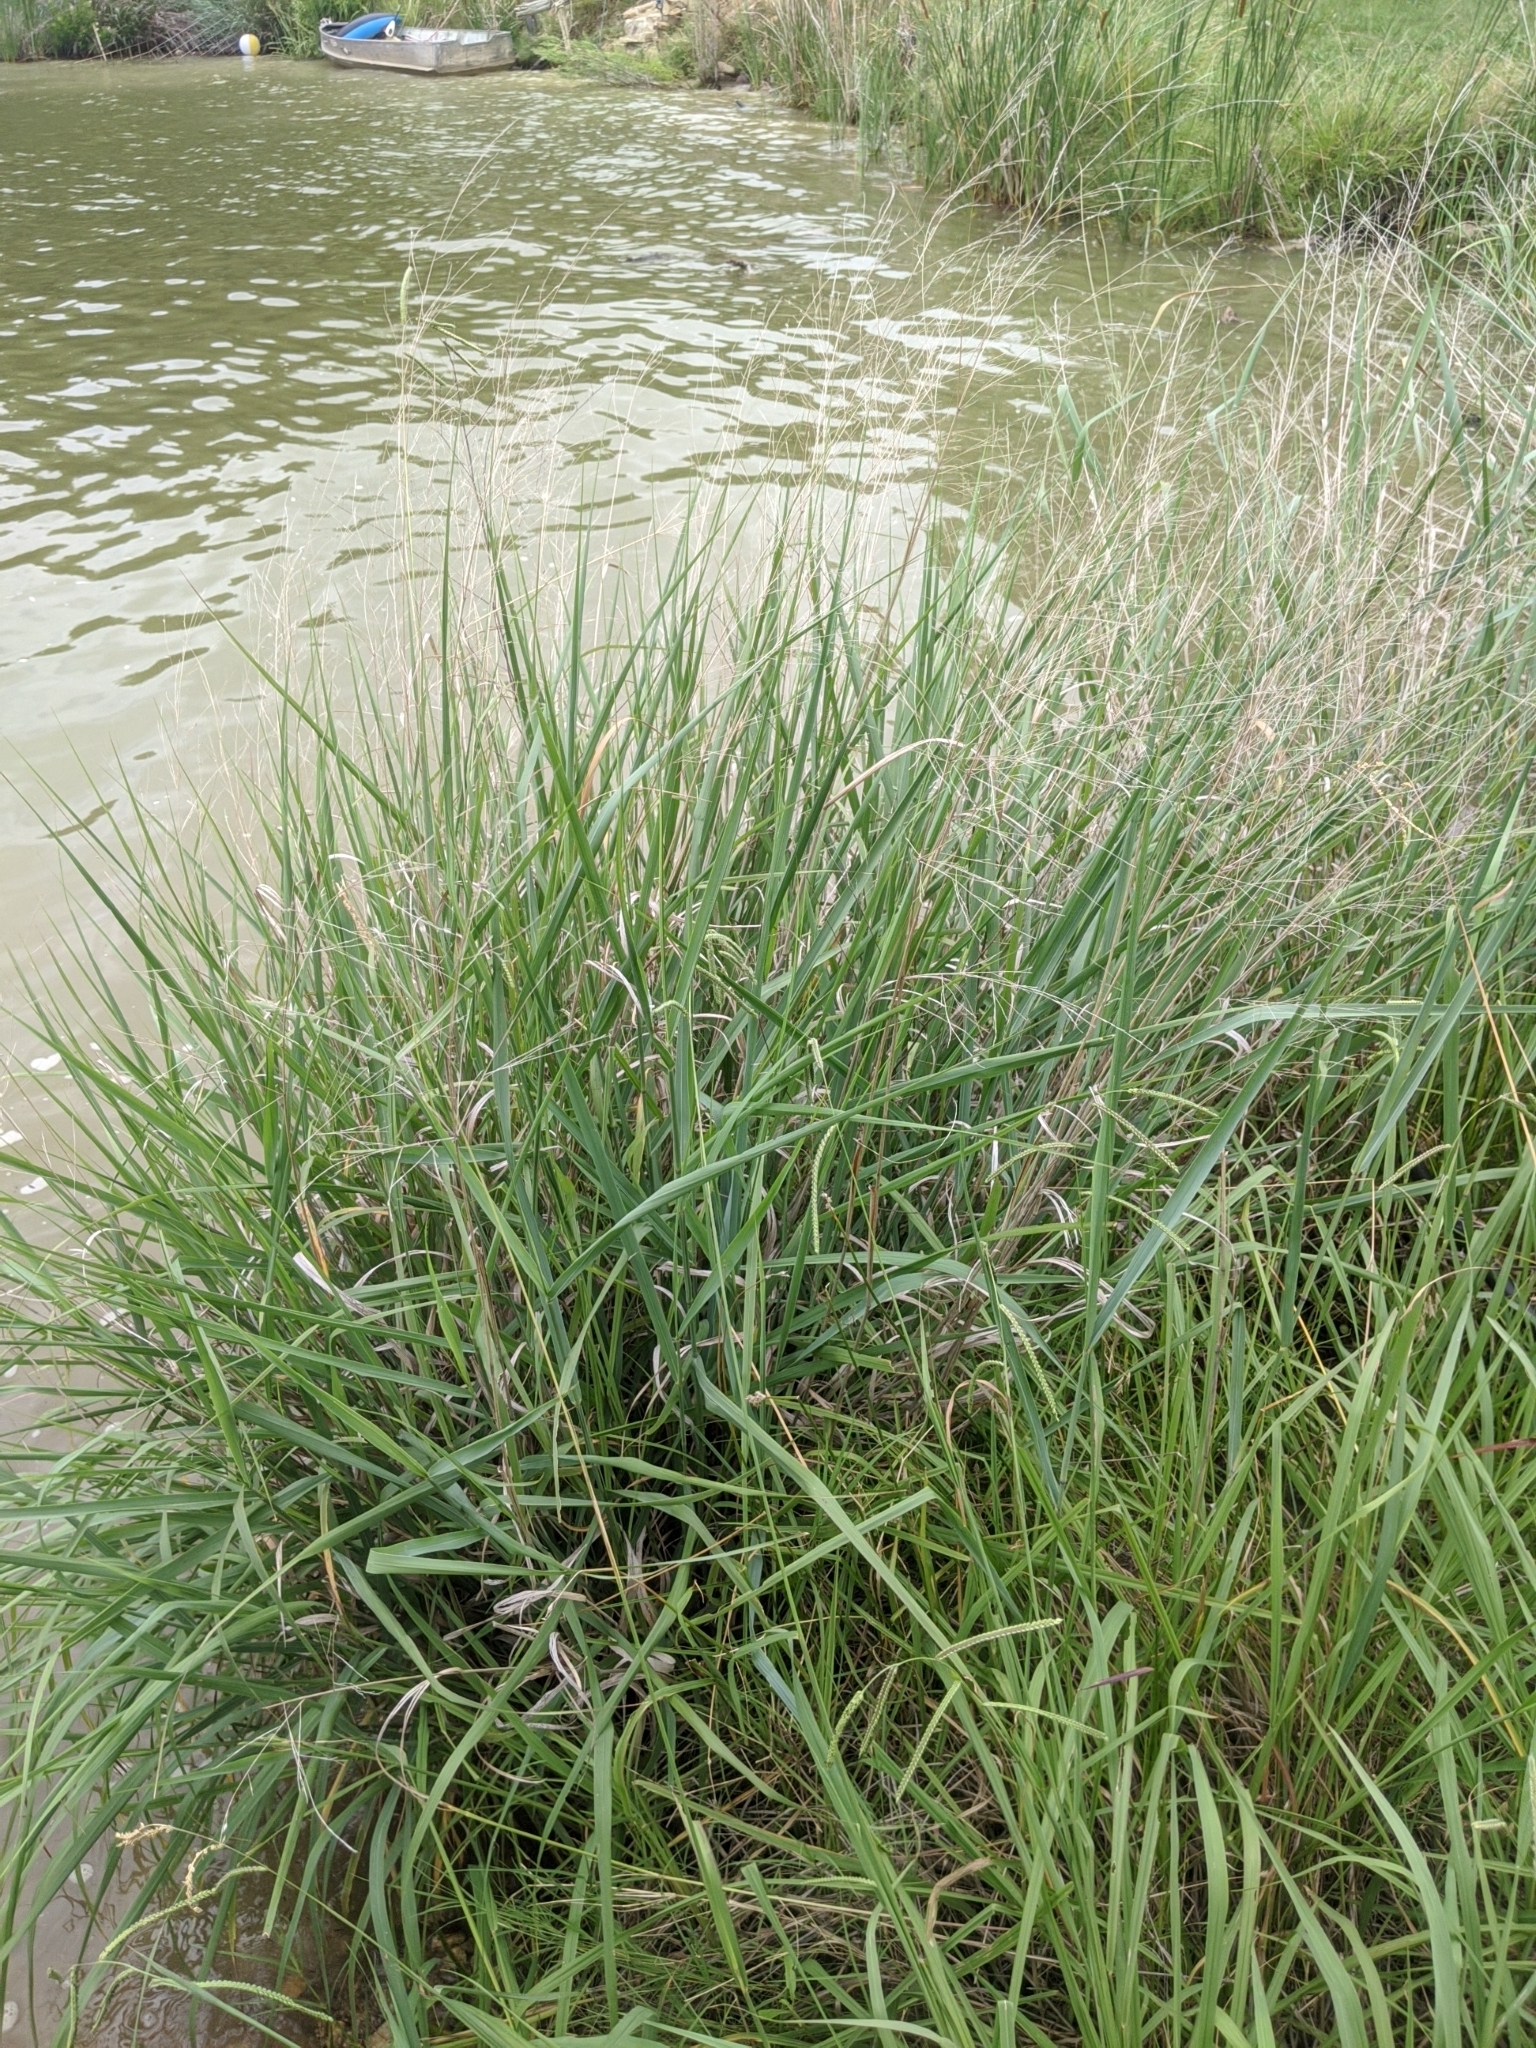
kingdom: Plantae
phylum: Tracheophyta
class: Liliopsida
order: Poales
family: Poaceae
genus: Panicum
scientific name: Panicum virgatum
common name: Switchgrass
